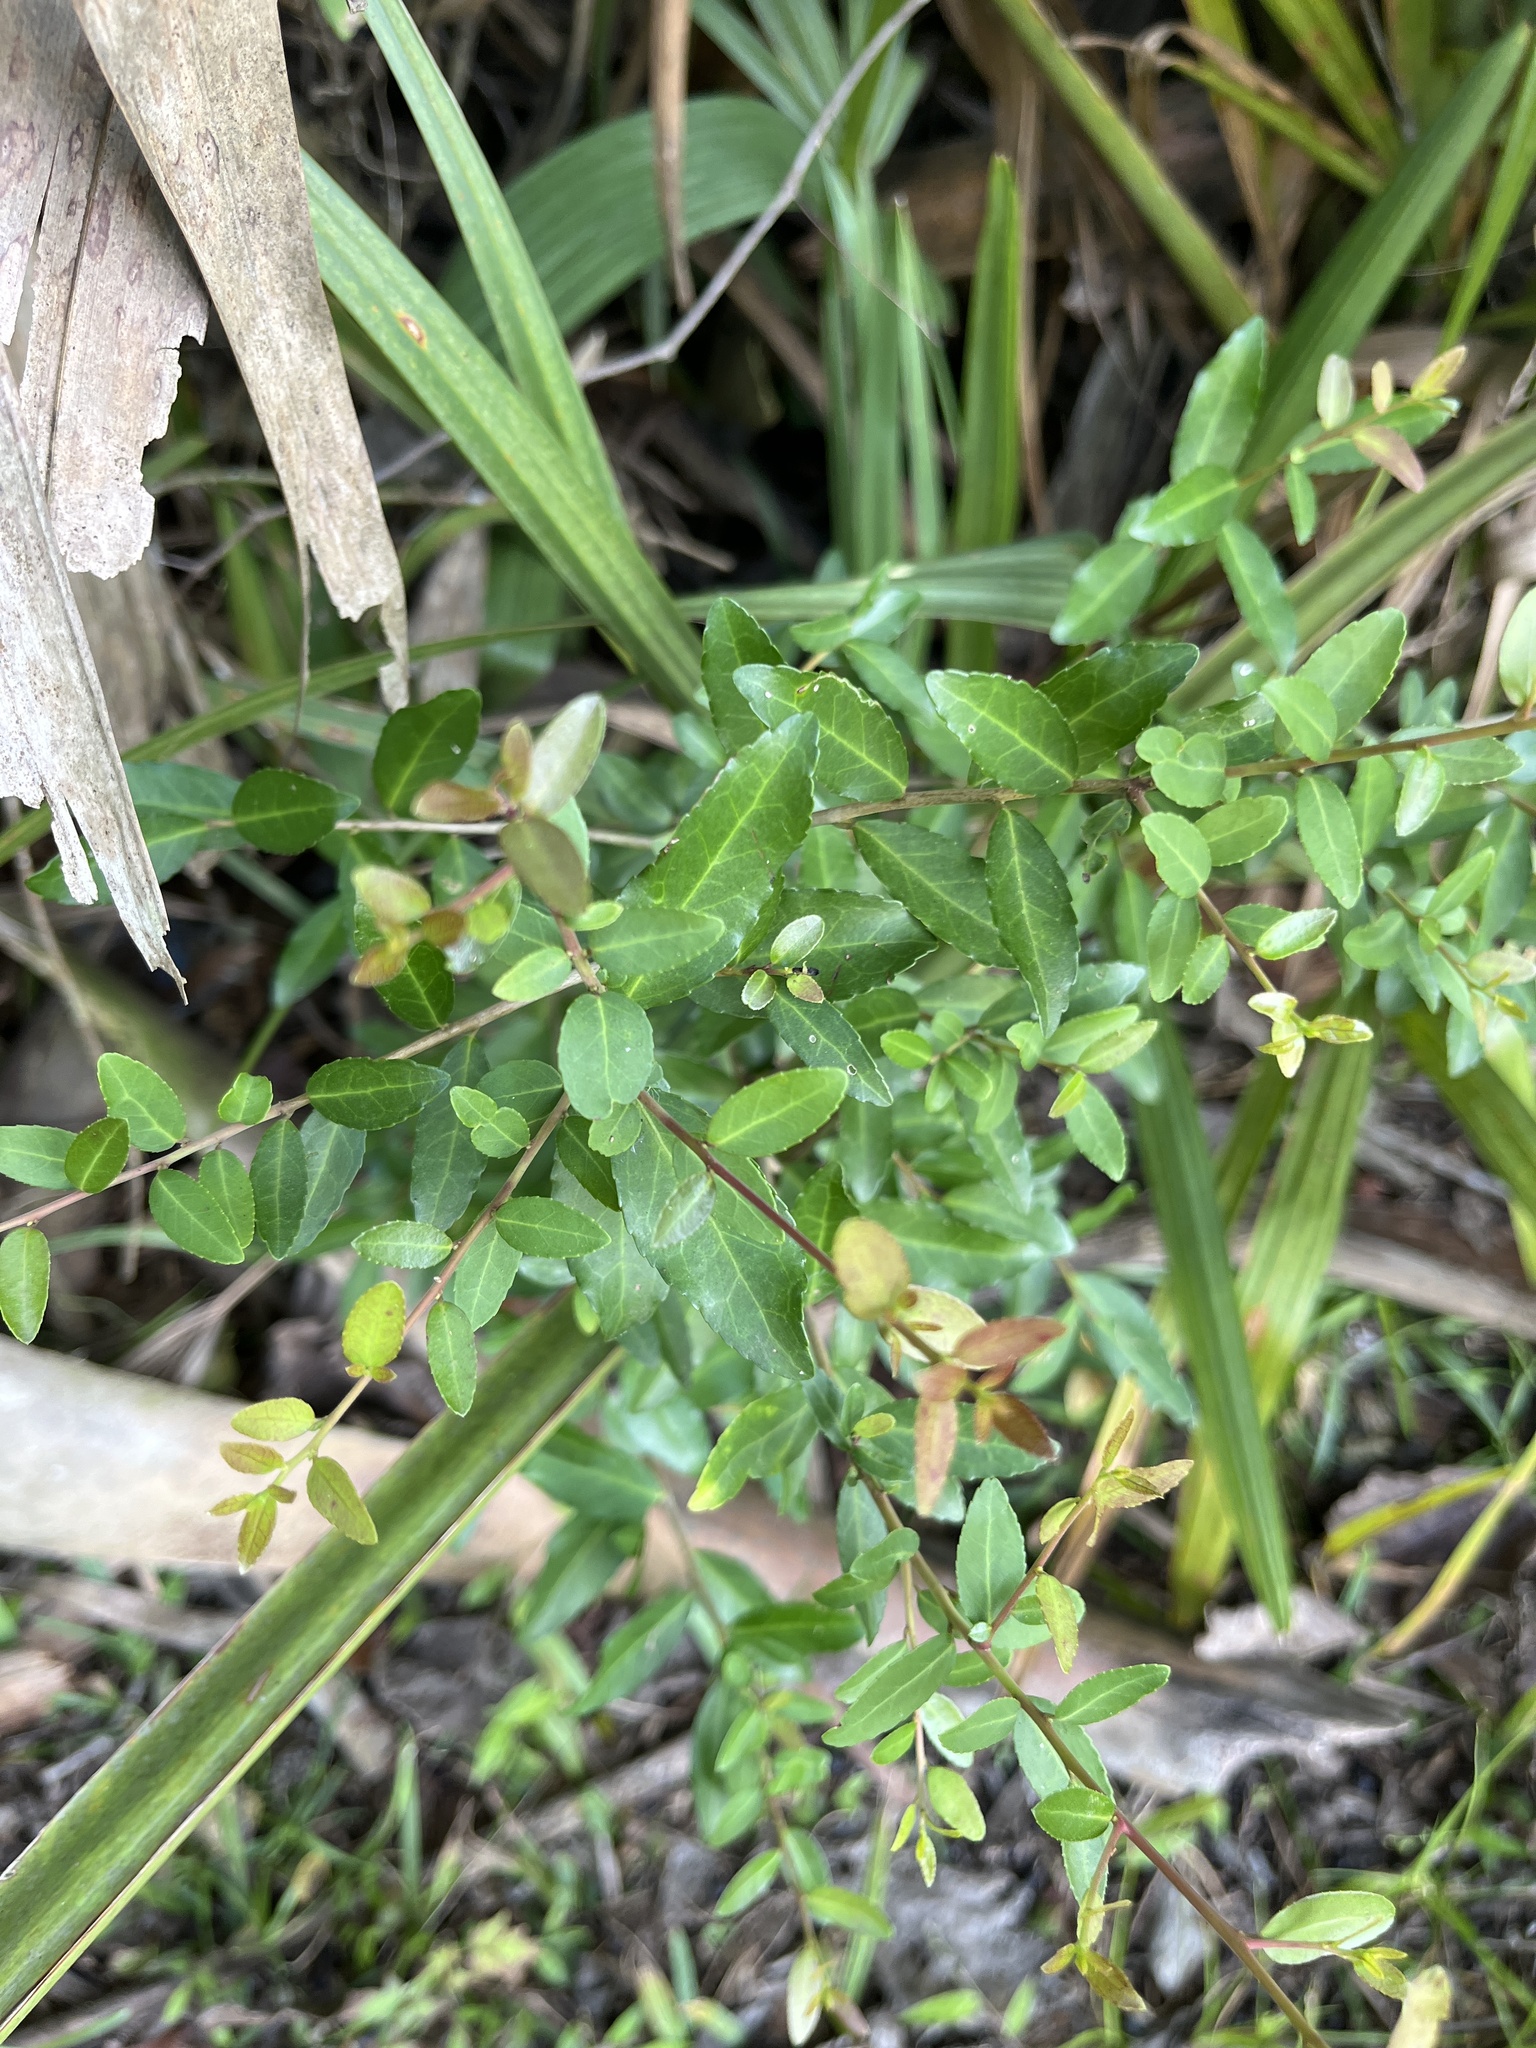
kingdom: Plantae
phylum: Tracheophyta
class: Magnoliopsida
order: Aquifoliales
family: Aquifoliaceae
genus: Ilex
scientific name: Ilex vomitoria
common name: Yaupon holly
